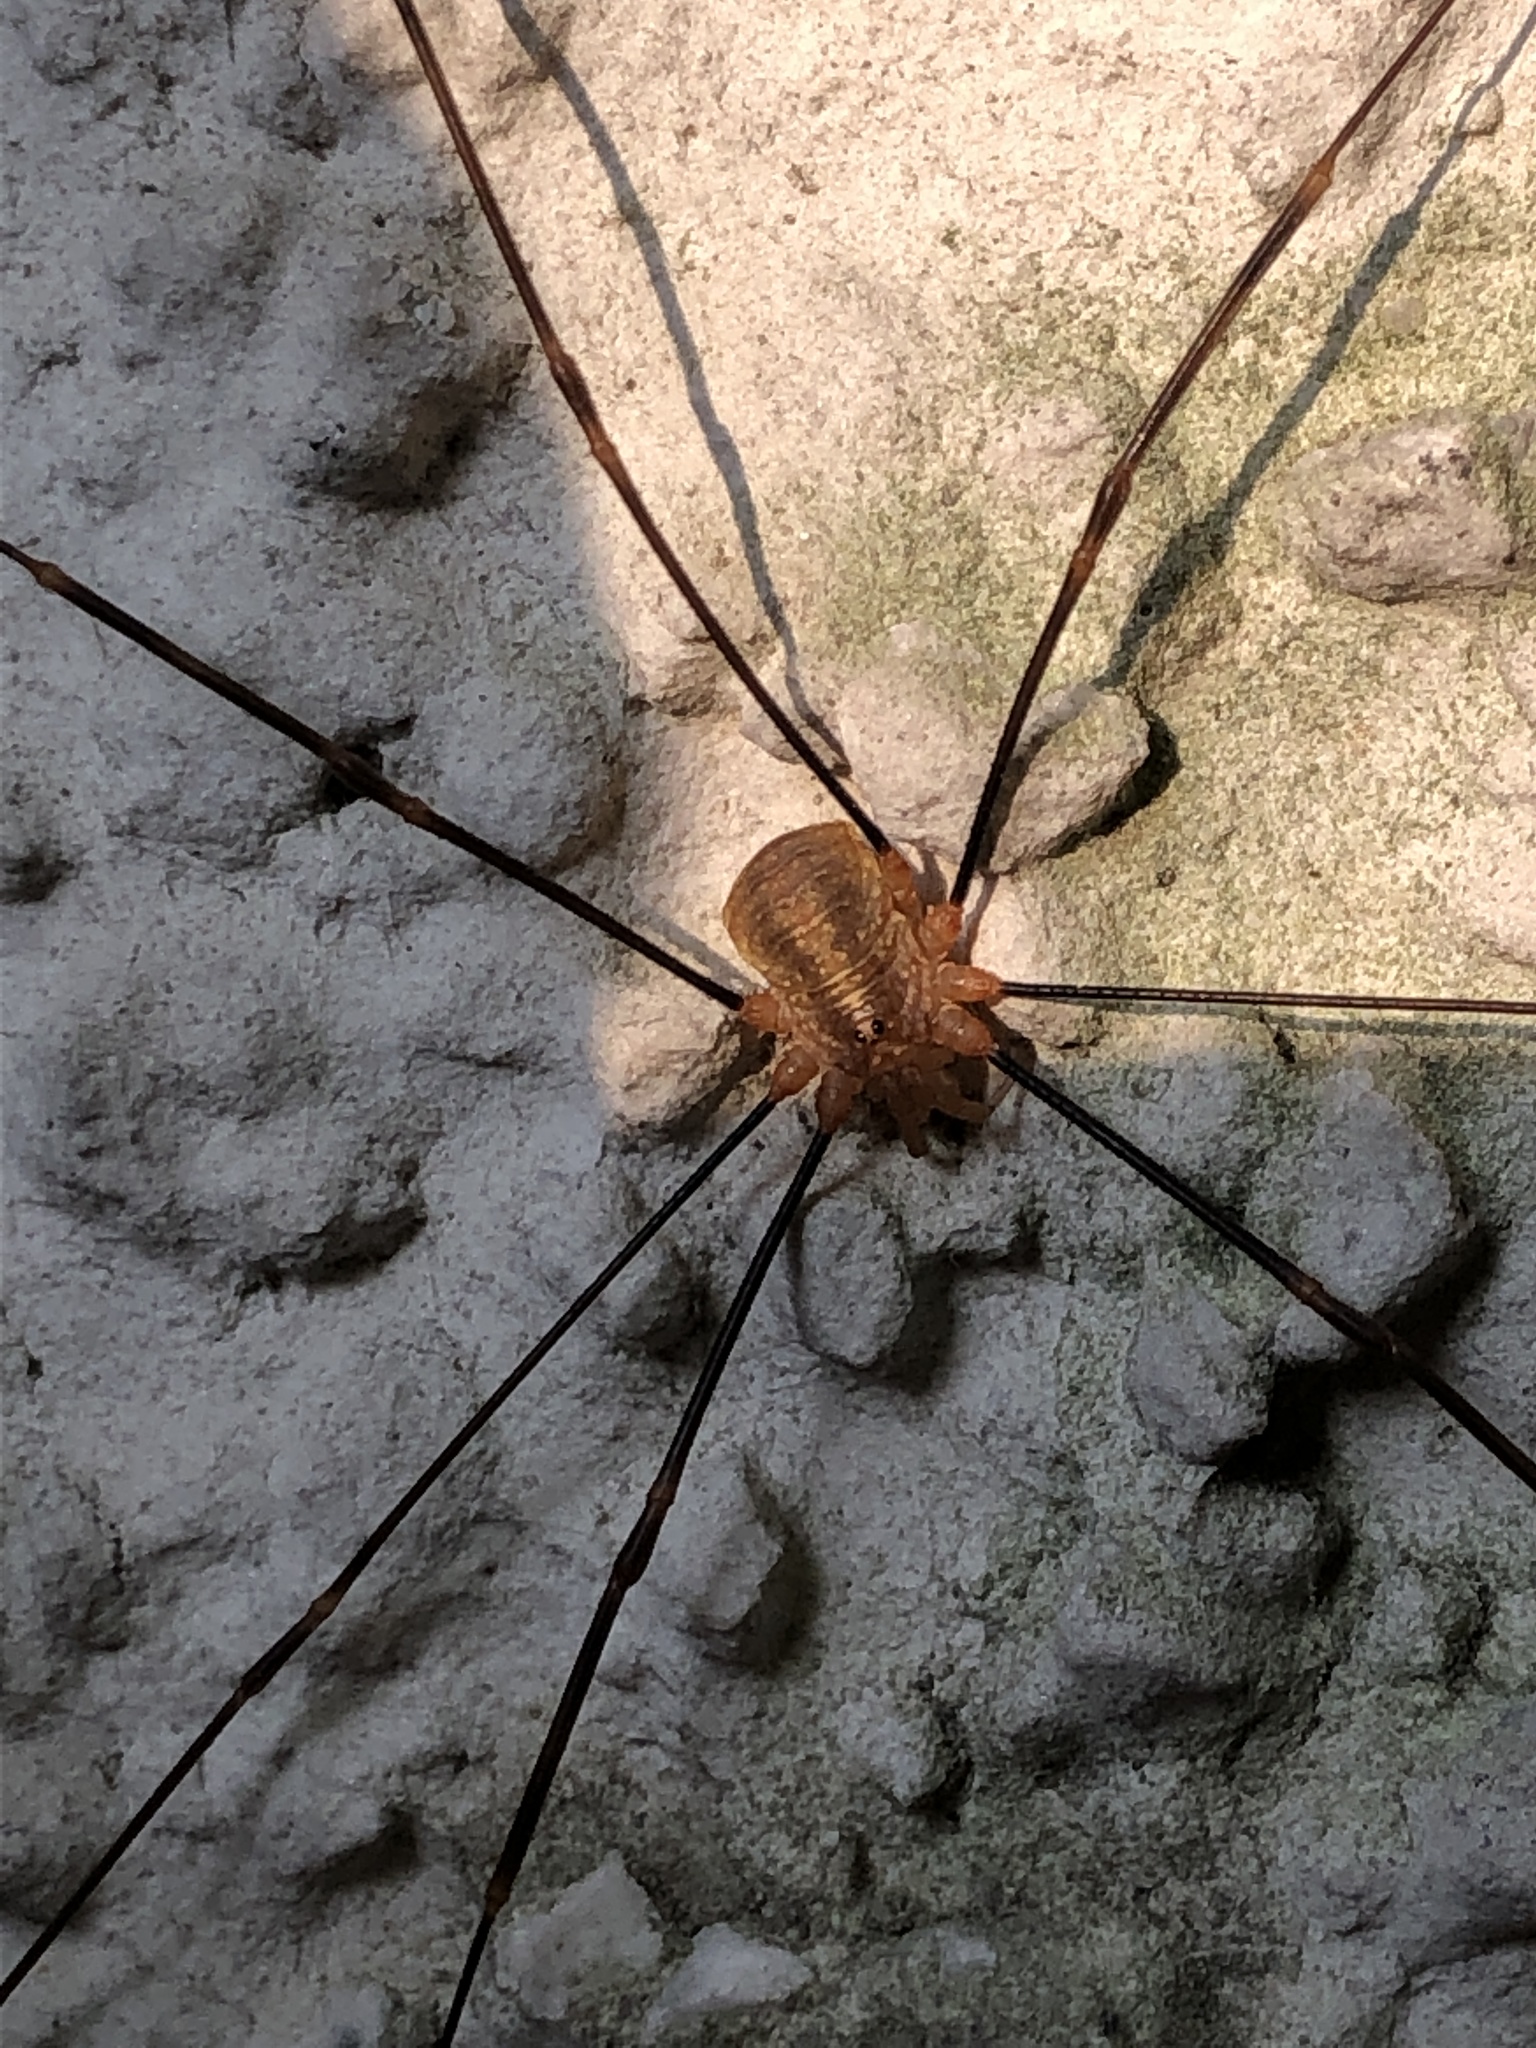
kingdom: Animalia
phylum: Arthropoda
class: Arachnida
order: Opiliones
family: Phalangiidae
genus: Opilio
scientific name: Opilio canestrinii
